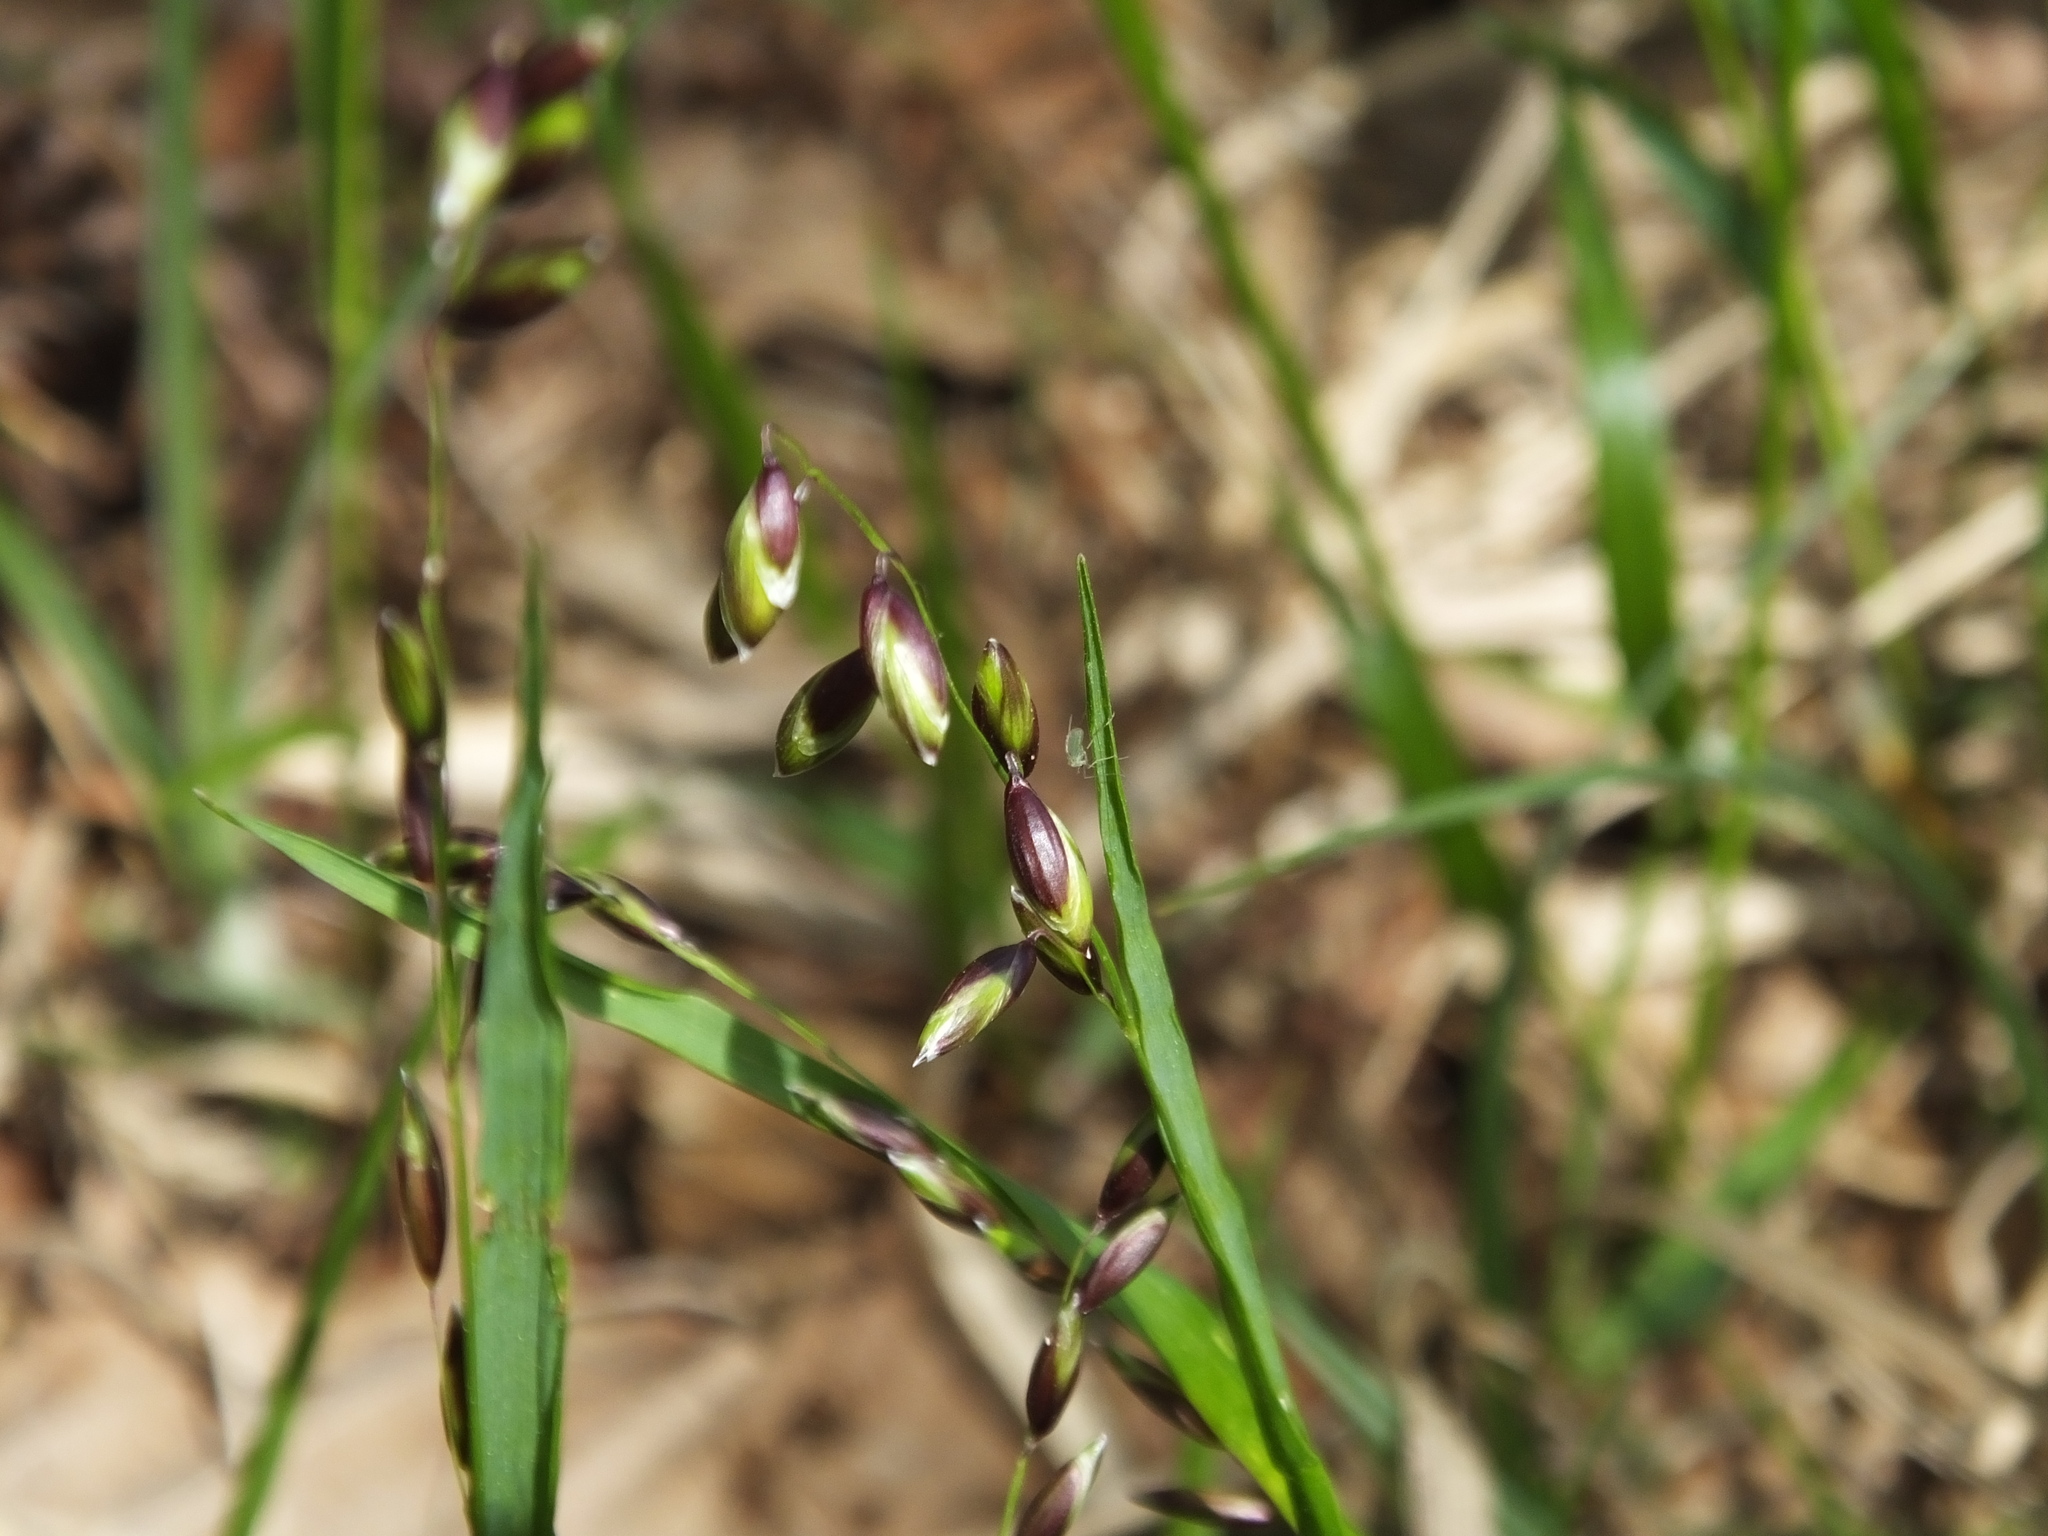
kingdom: Plantae
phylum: Tracheophyta
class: Liliopsida
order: Poales
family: Poaceae
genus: Melica
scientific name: Melica nutans
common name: Mountain melick
